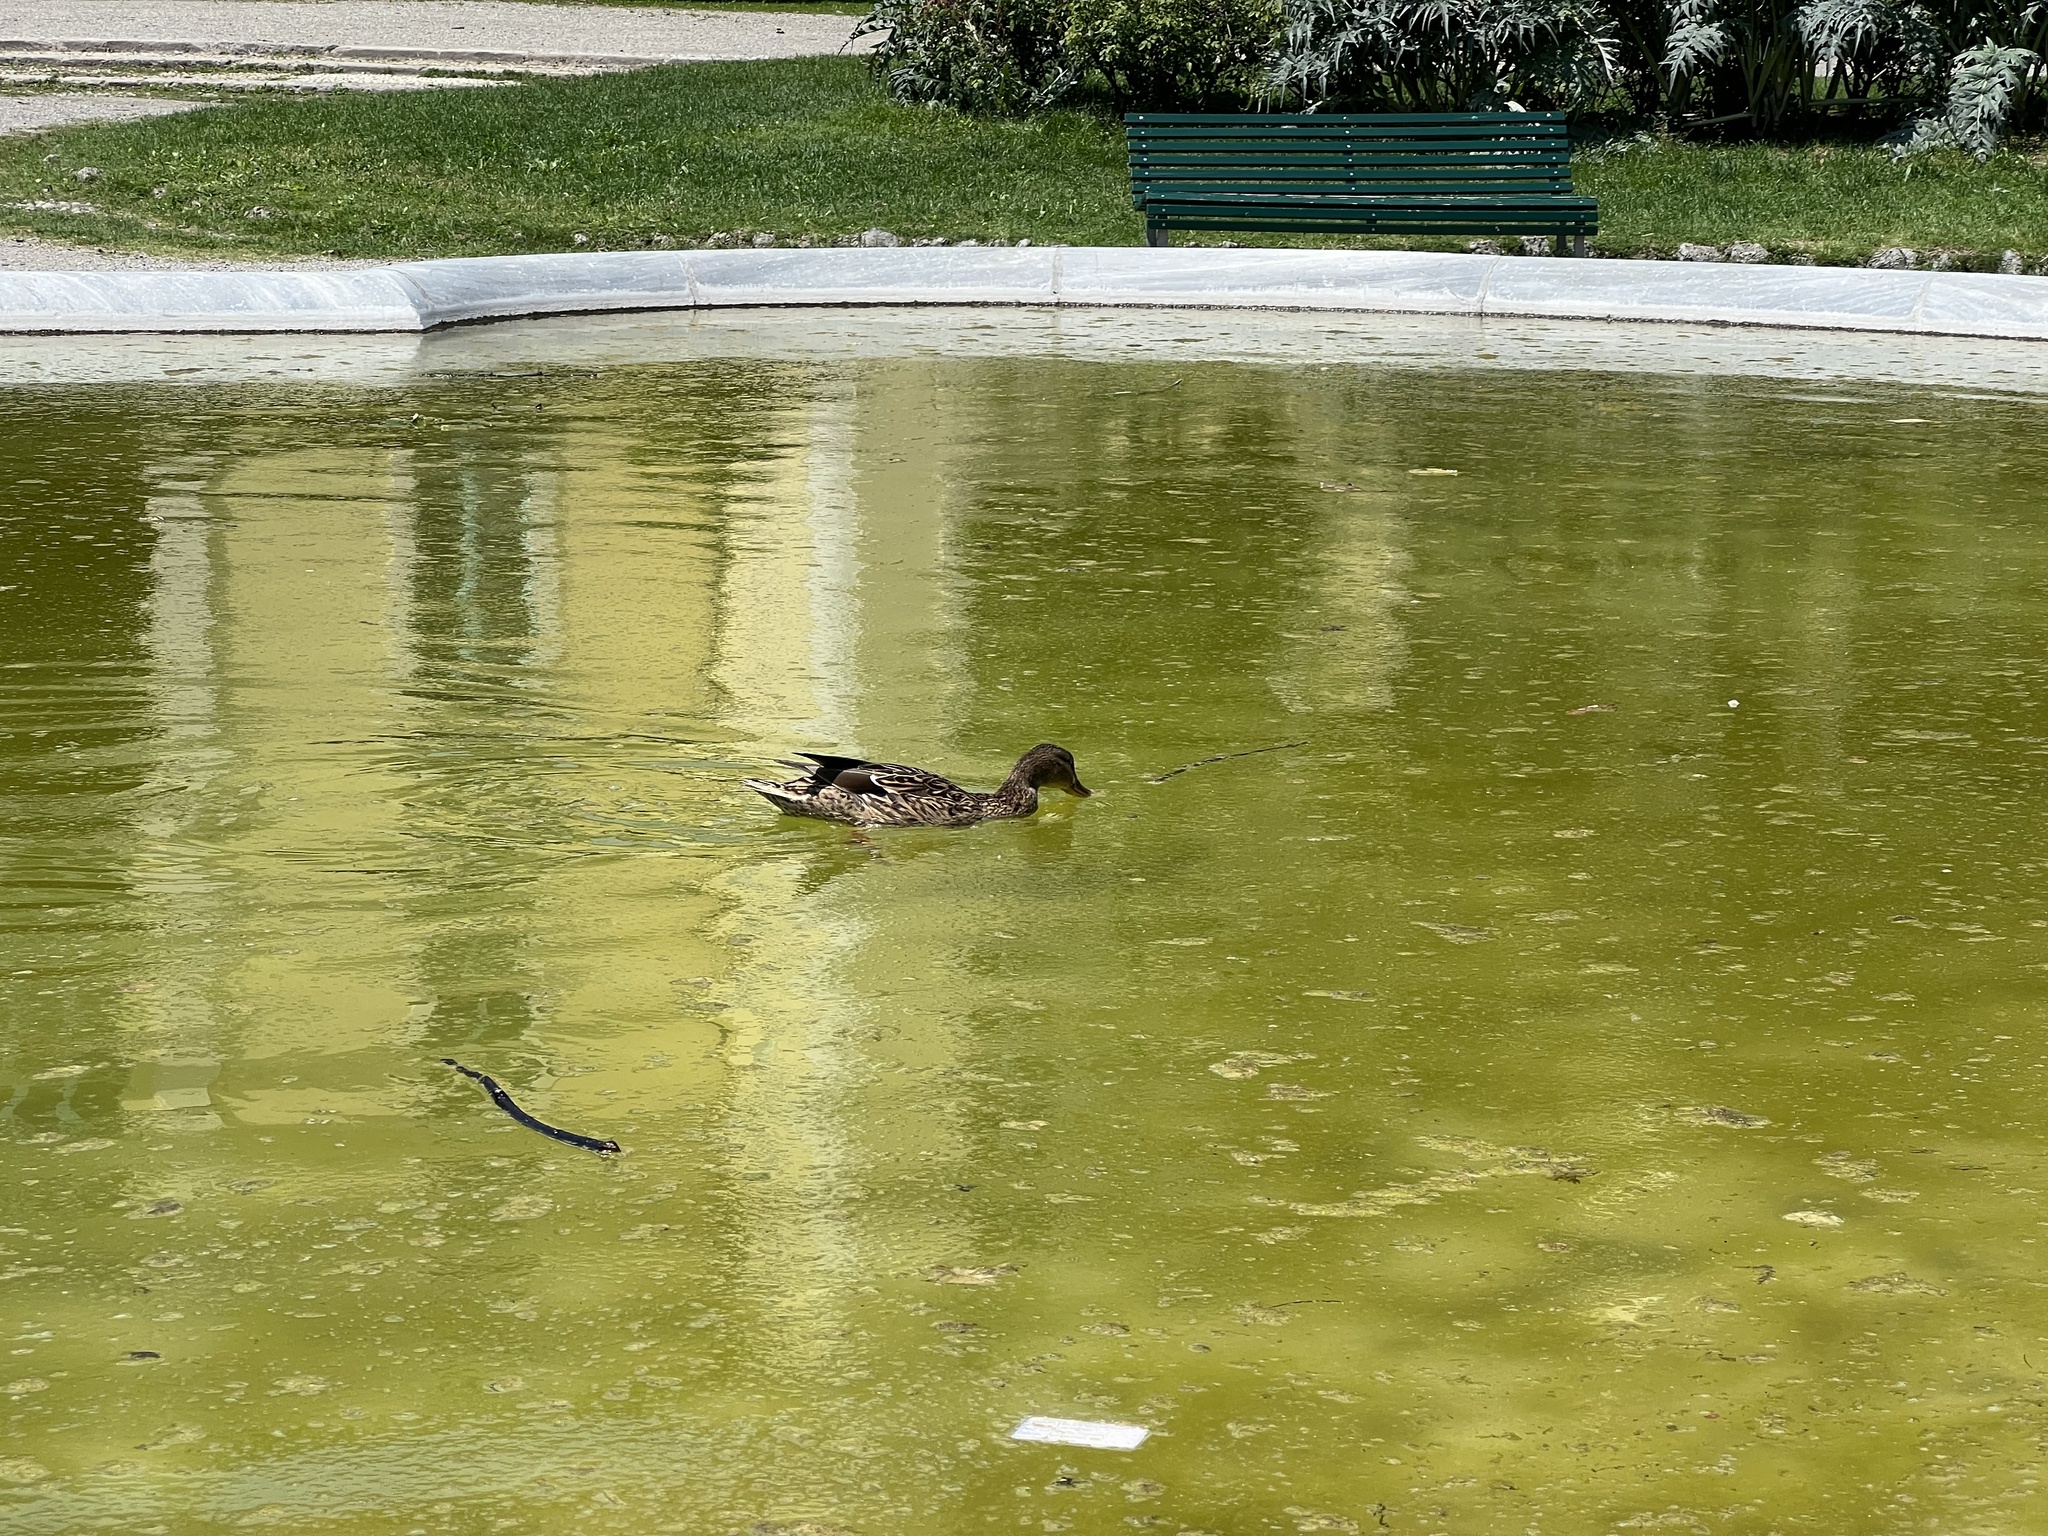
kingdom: Animalia
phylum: Chordata
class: Aves
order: Anseriformes
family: Anatidae
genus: Anas
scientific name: Anas platyrhynchos
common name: Mallard
